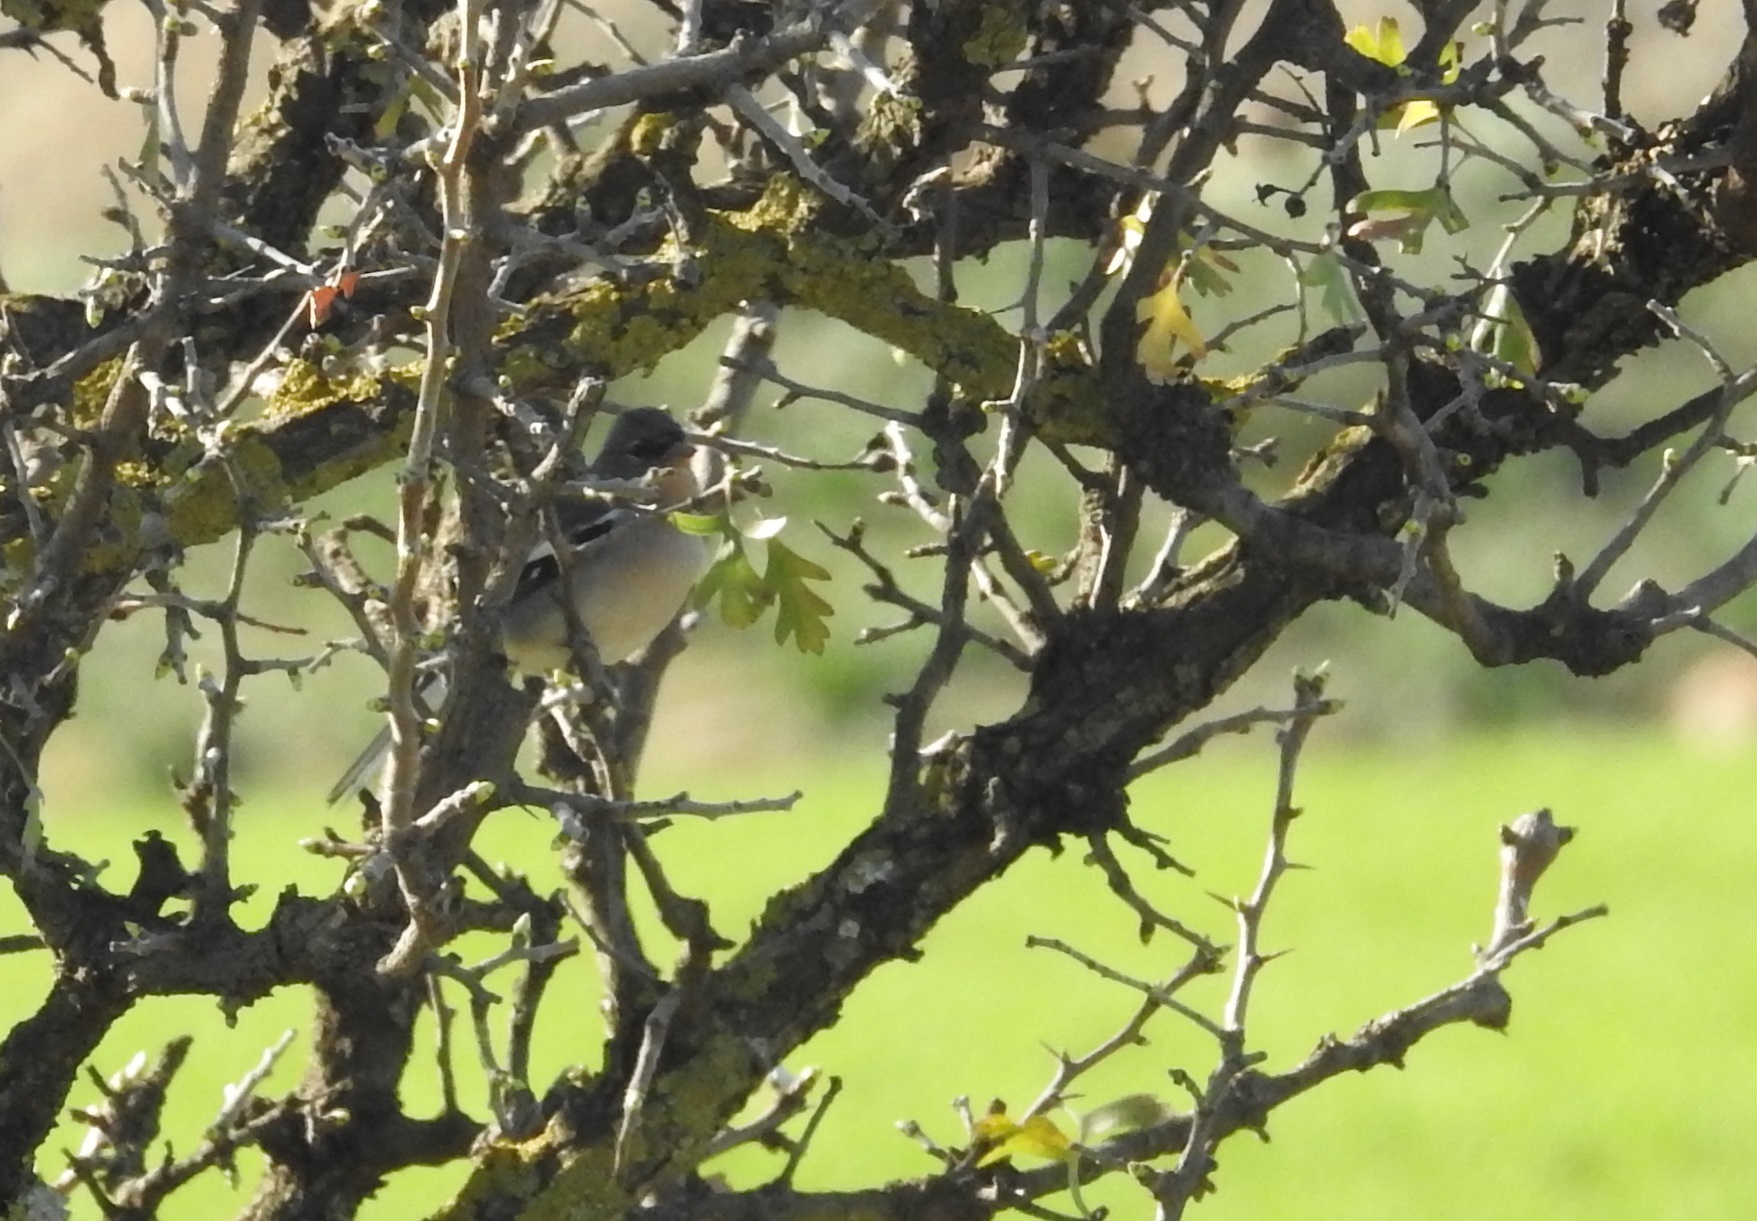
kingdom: Animalia
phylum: Chordata
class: Aves
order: Passeriformes
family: Fringillidae
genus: Fringilla
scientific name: Fringilla spodiogenys
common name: African chaffinch
